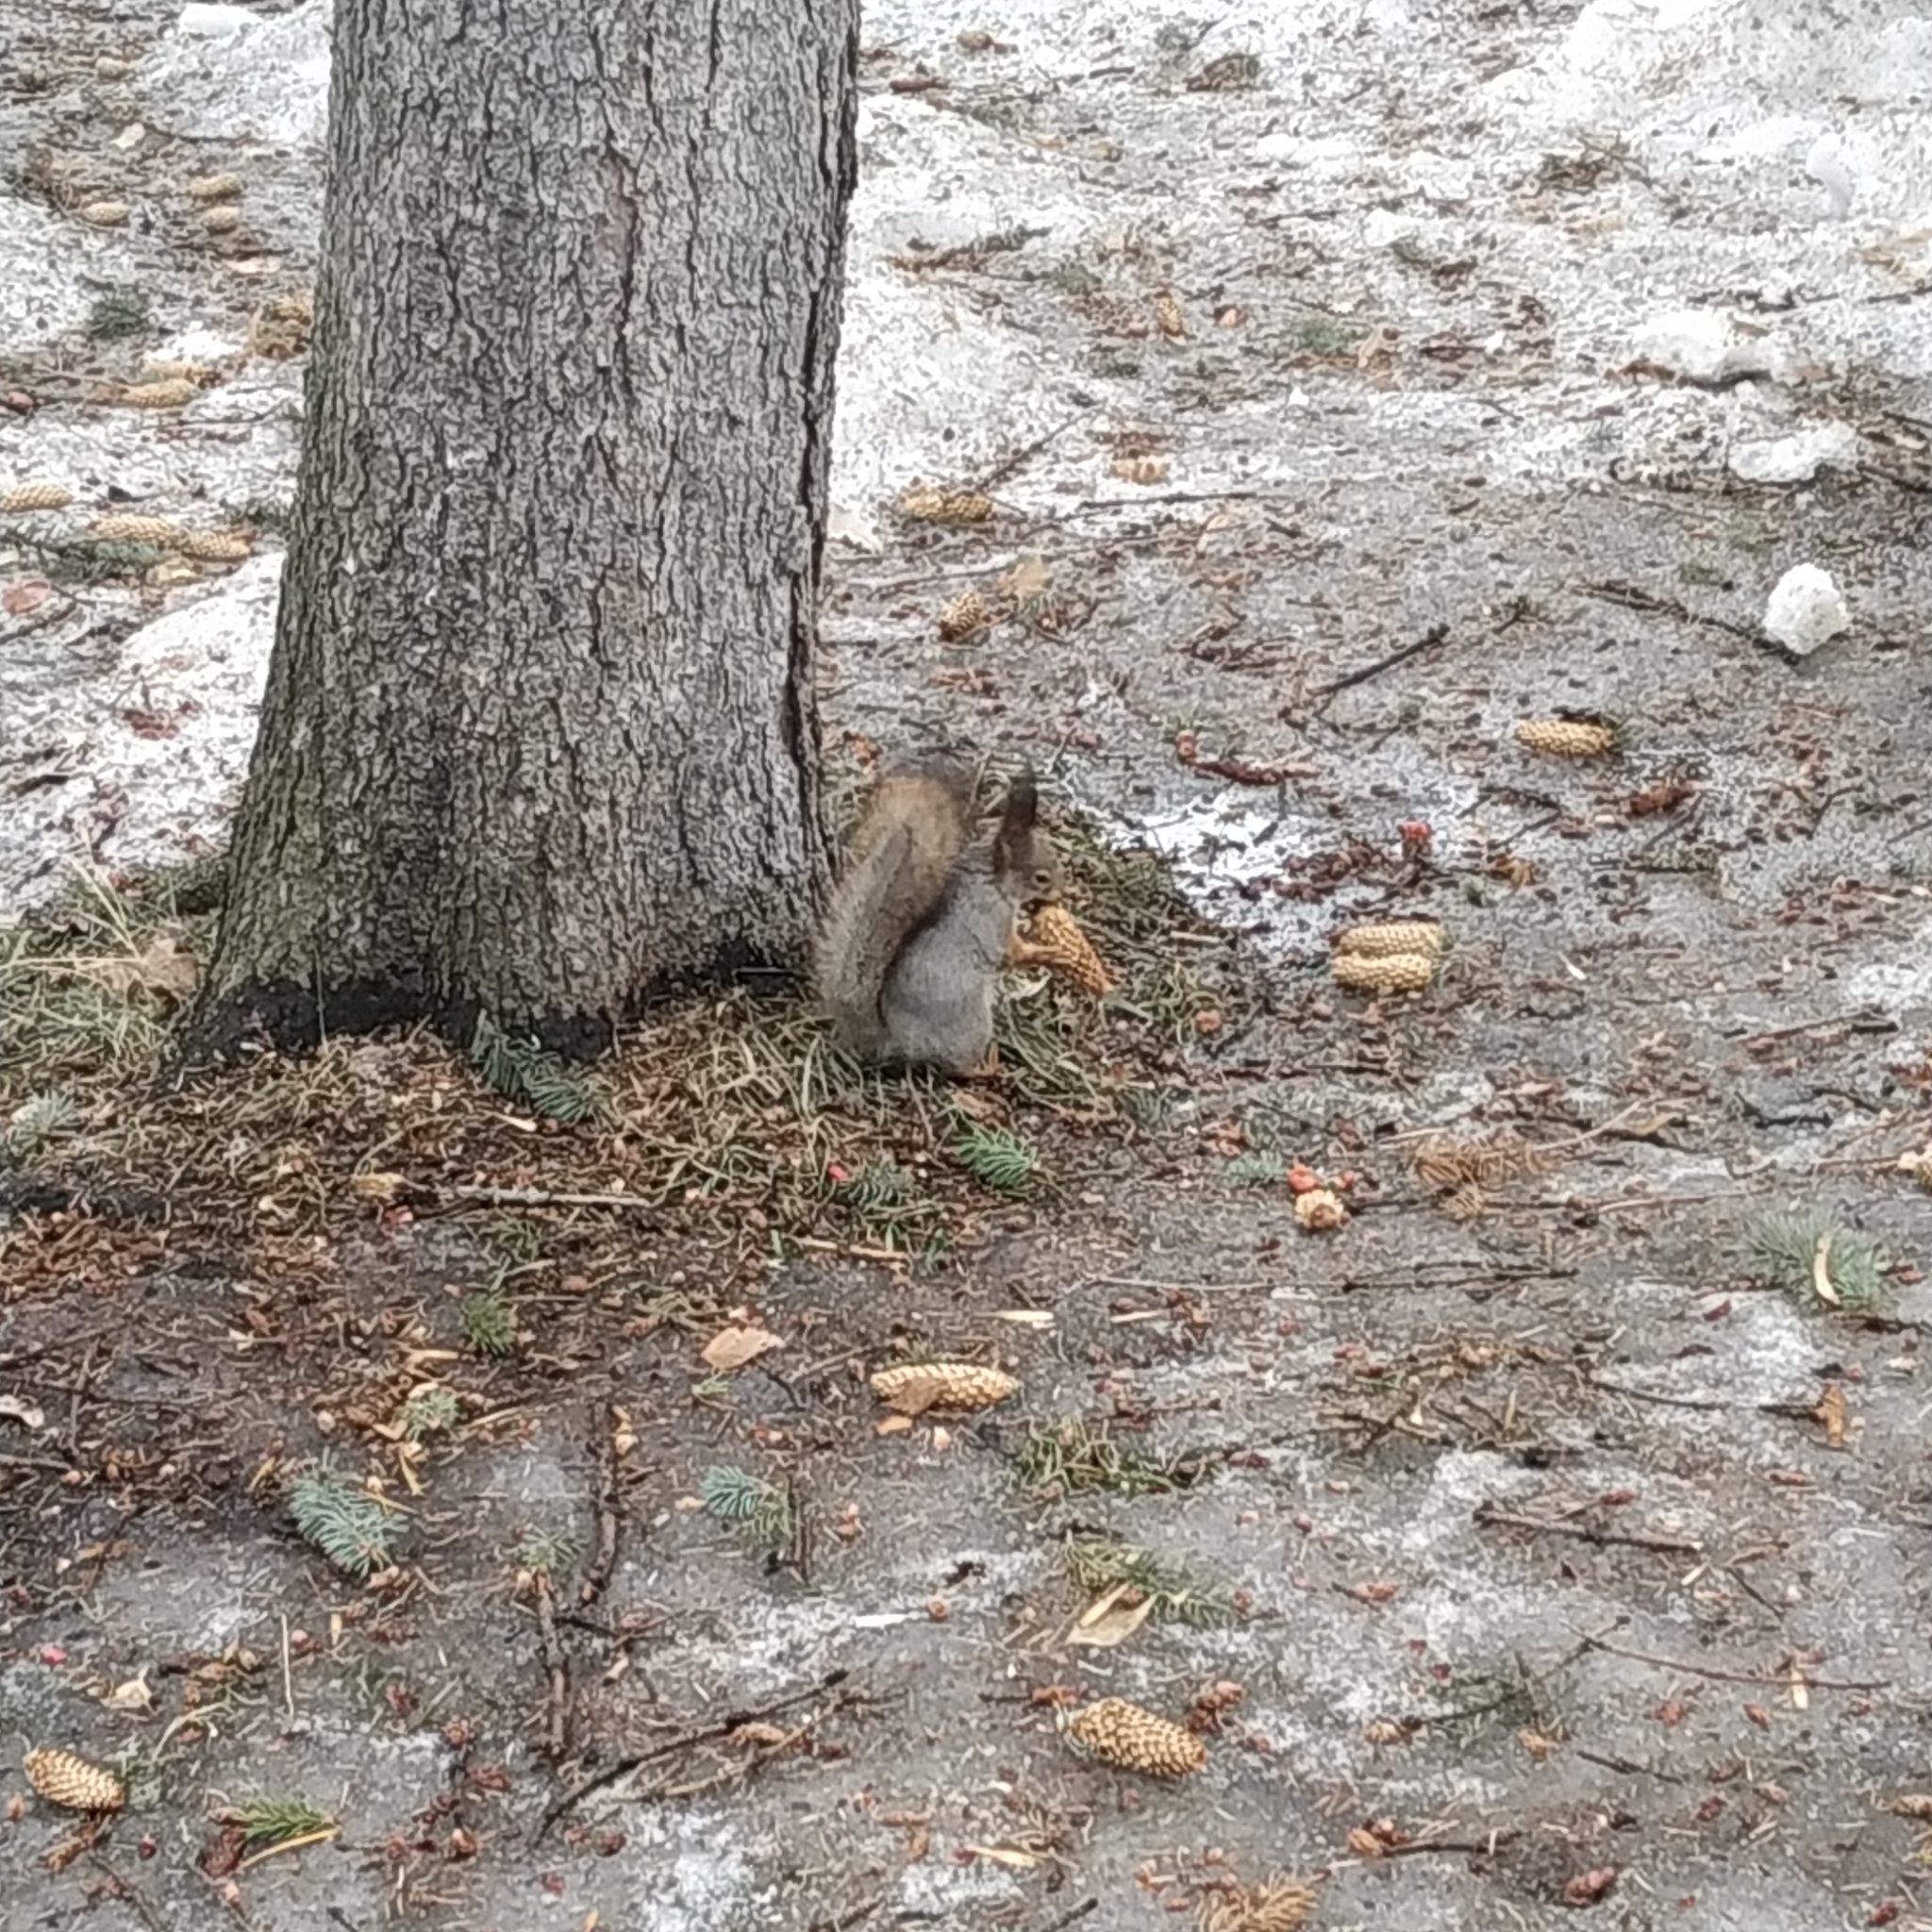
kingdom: Animalia
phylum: Chordata
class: Mammalia
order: Rodentia
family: Sciuridae
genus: Sciurus
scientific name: Sciurus vulgaris
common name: Eurasian red squirrel
